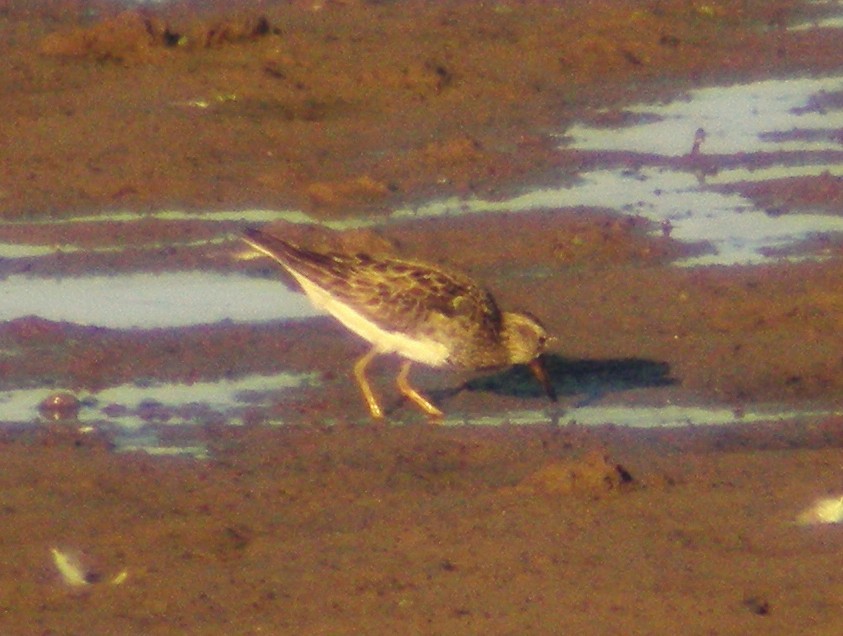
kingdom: Animalia
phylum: Chordata
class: Aves
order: Charadriiformes
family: Scolopacidae
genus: Calidris
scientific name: Calidris melanotos
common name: Pectoral sandpiper
